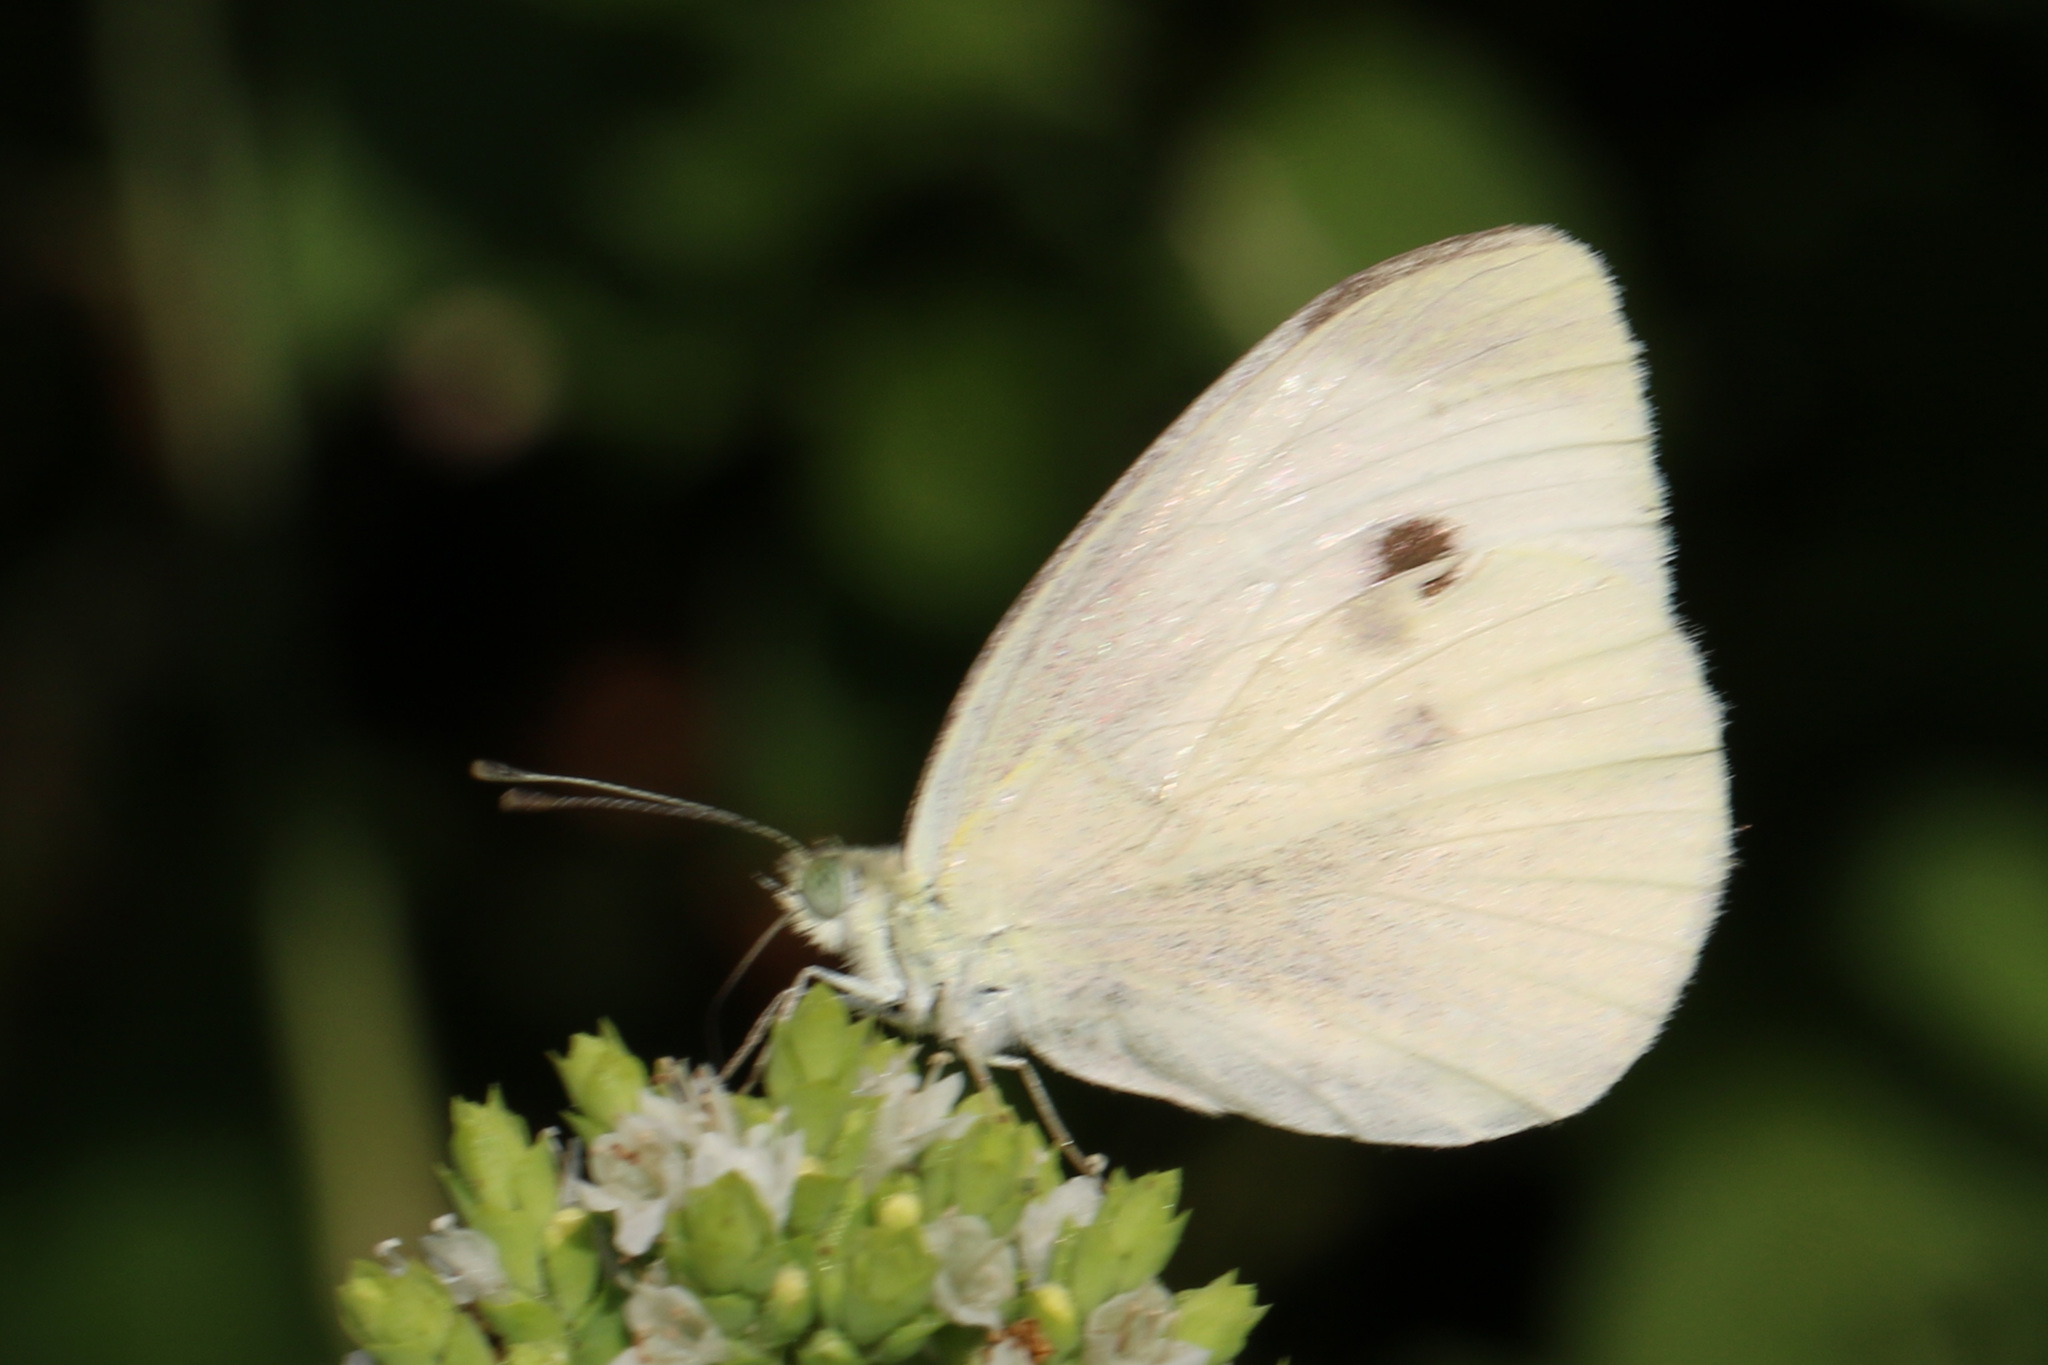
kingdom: Animalia
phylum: Arthropoda
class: Insecta
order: Lepidoptera
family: Pieridae
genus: Pieris
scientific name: Pieris rapae
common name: Small white
